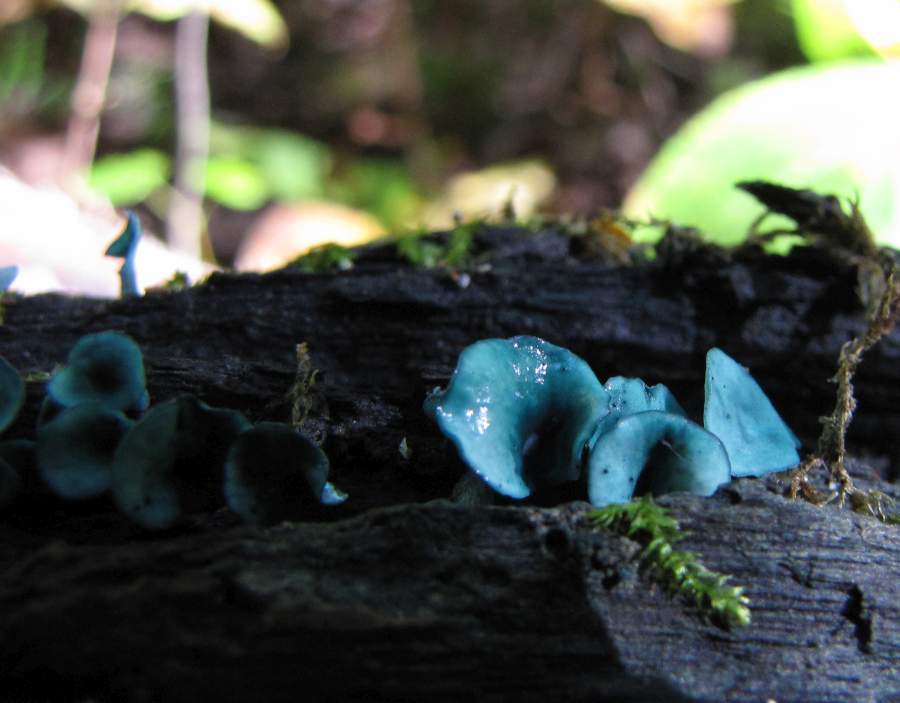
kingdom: Fungi
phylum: Ascomycota
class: Leotiomycetes
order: Helotiales
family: Chlorociboriaceae
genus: Chlorociboria
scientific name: Chlorociboria aeruginascens
